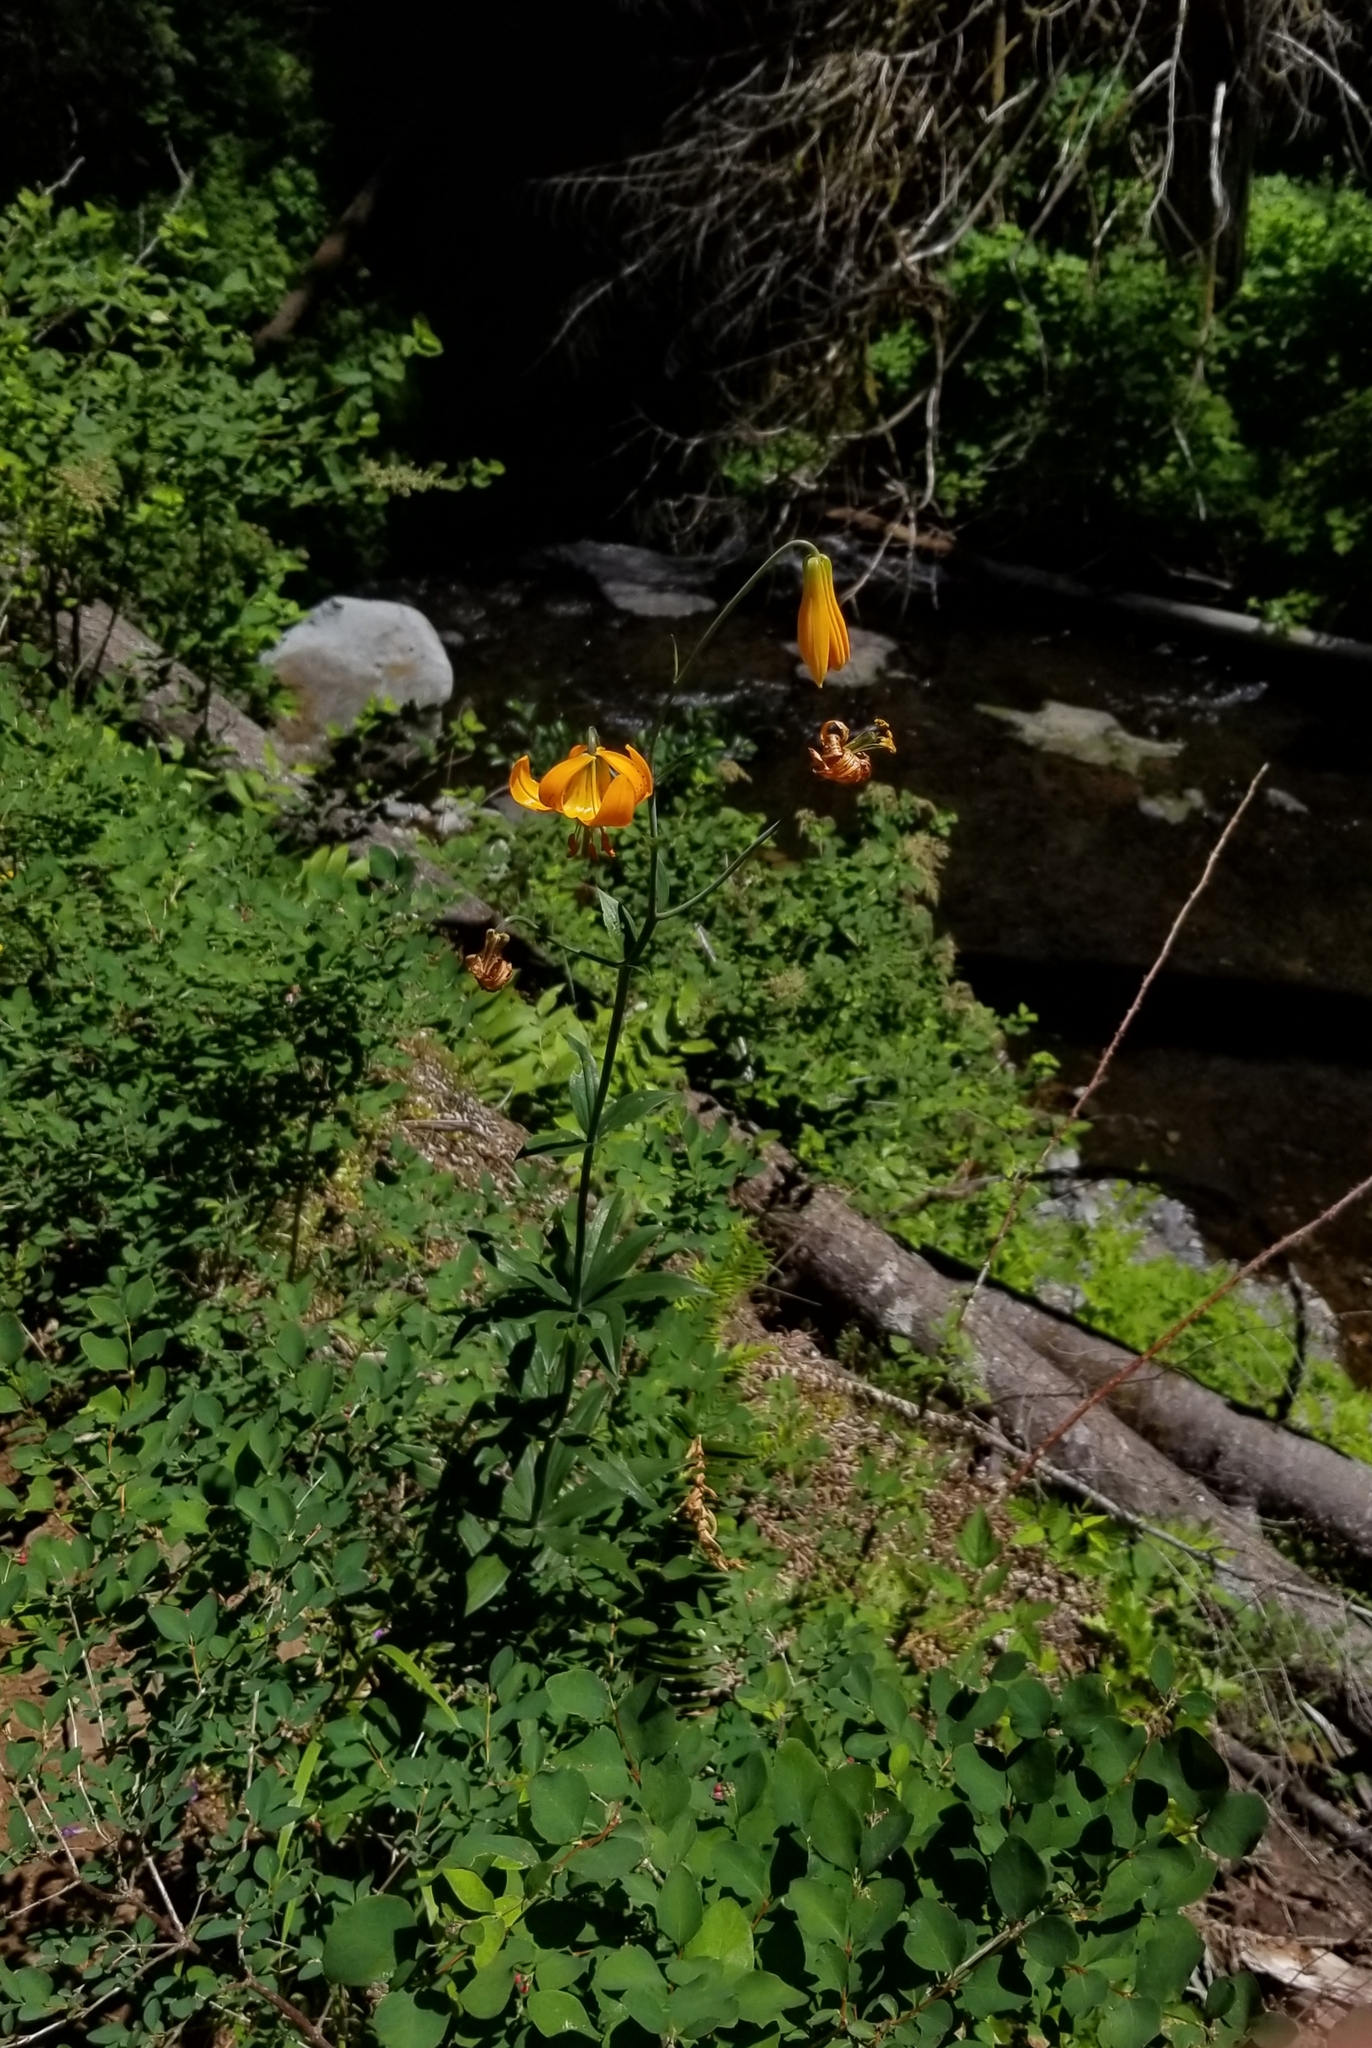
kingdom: Plantae
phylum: Tracheophyta
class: Liliopsida
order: Liliales
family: Liliaceae
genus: Lilium
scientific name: Lilium columbianum
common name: Columbia lily
